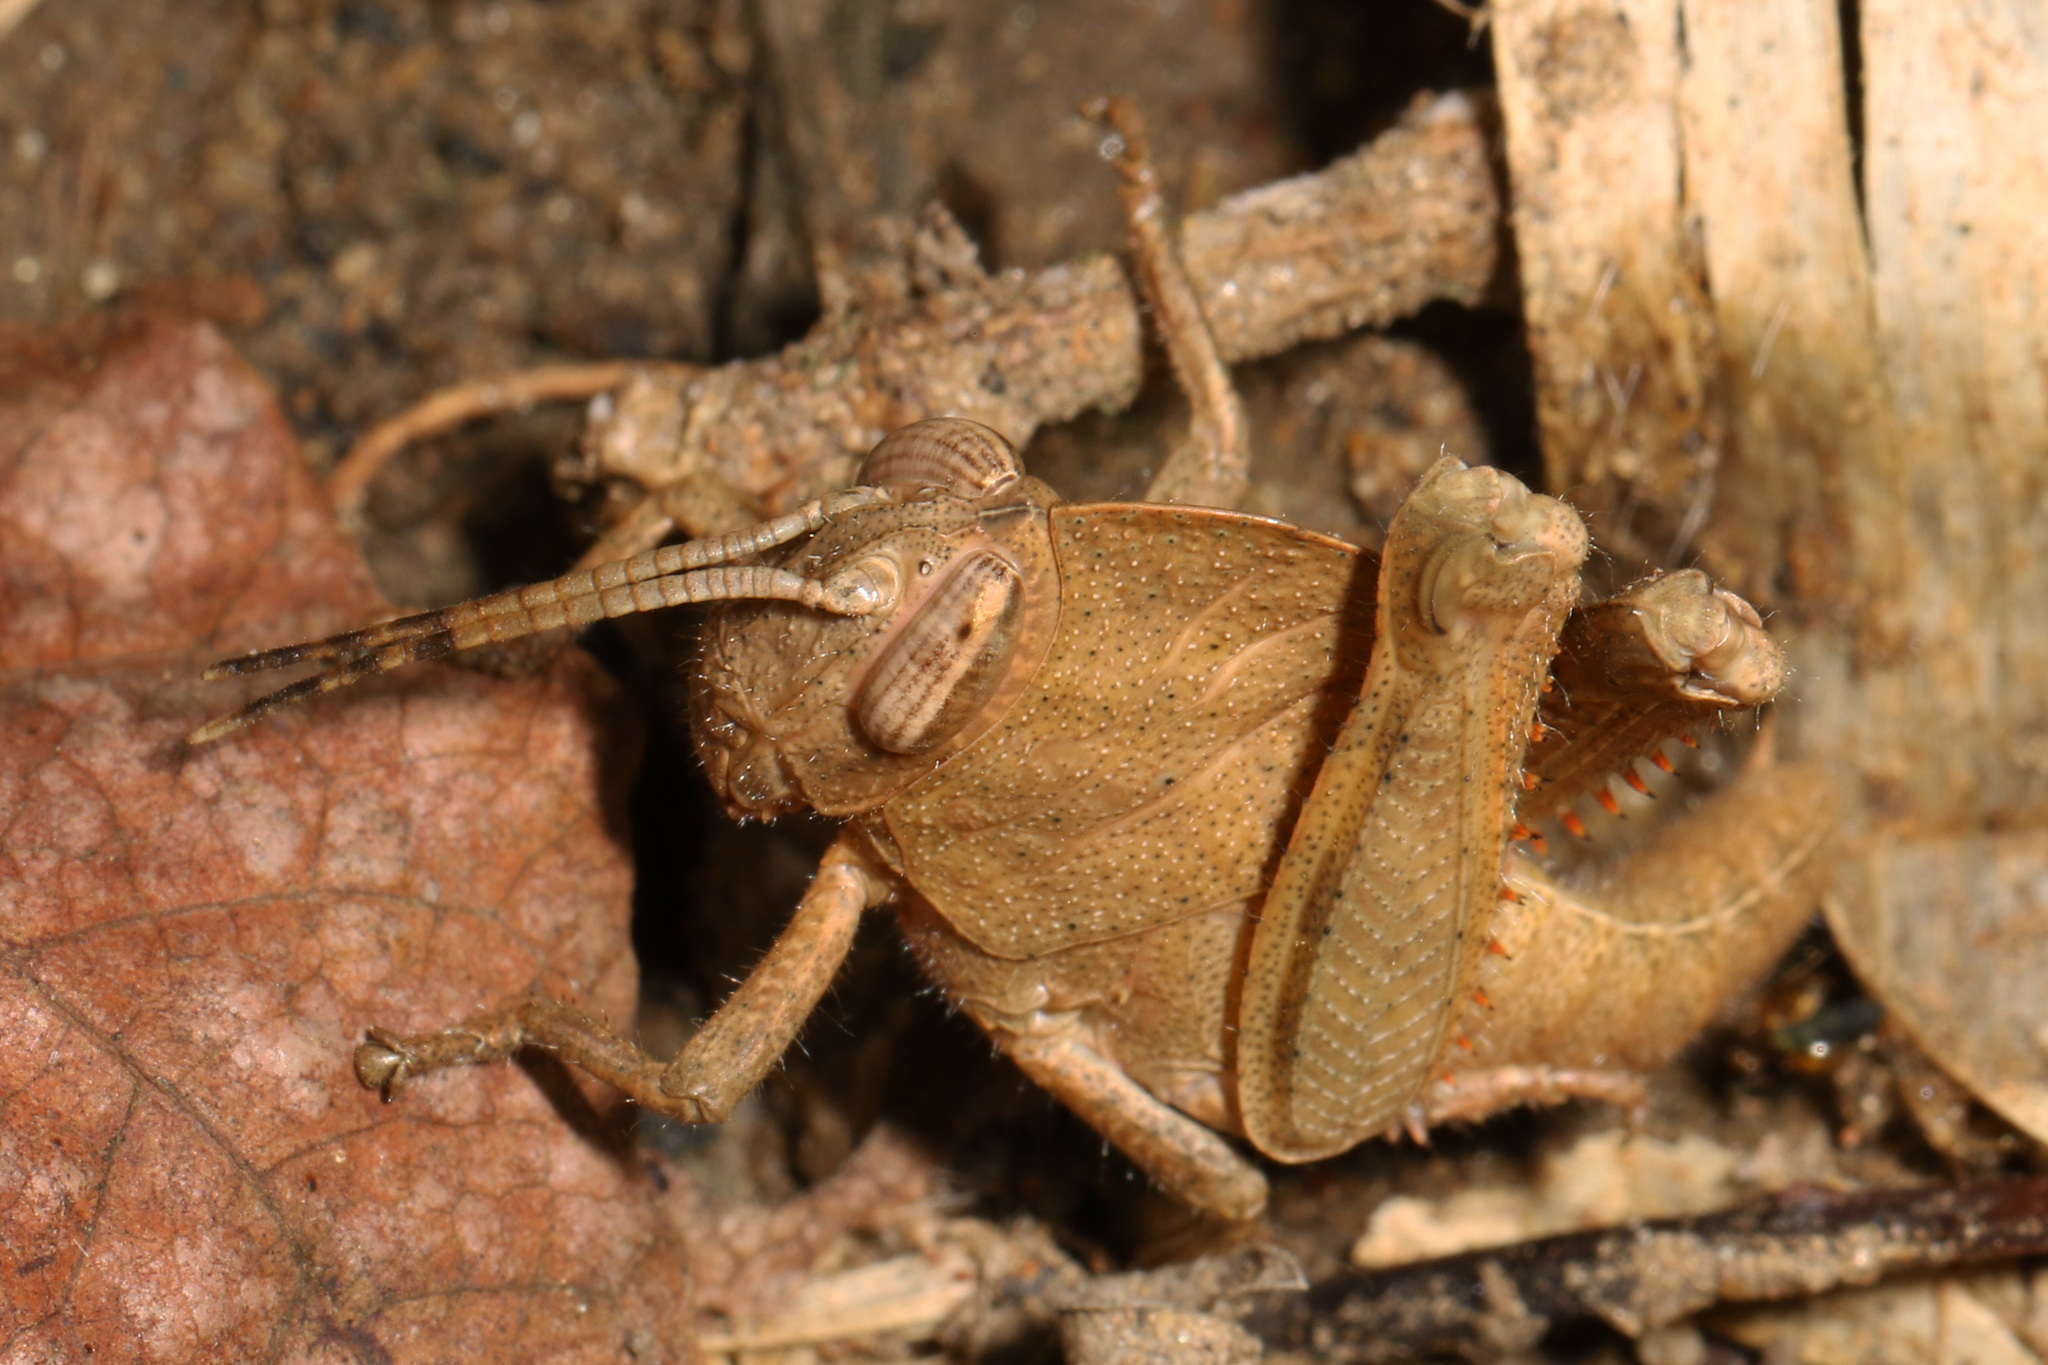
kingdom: Animalia
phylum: Arthropoda
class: Insecta
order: Orthoptera
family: Acrididae
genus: Abisares
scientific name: Abisares viridipenne
